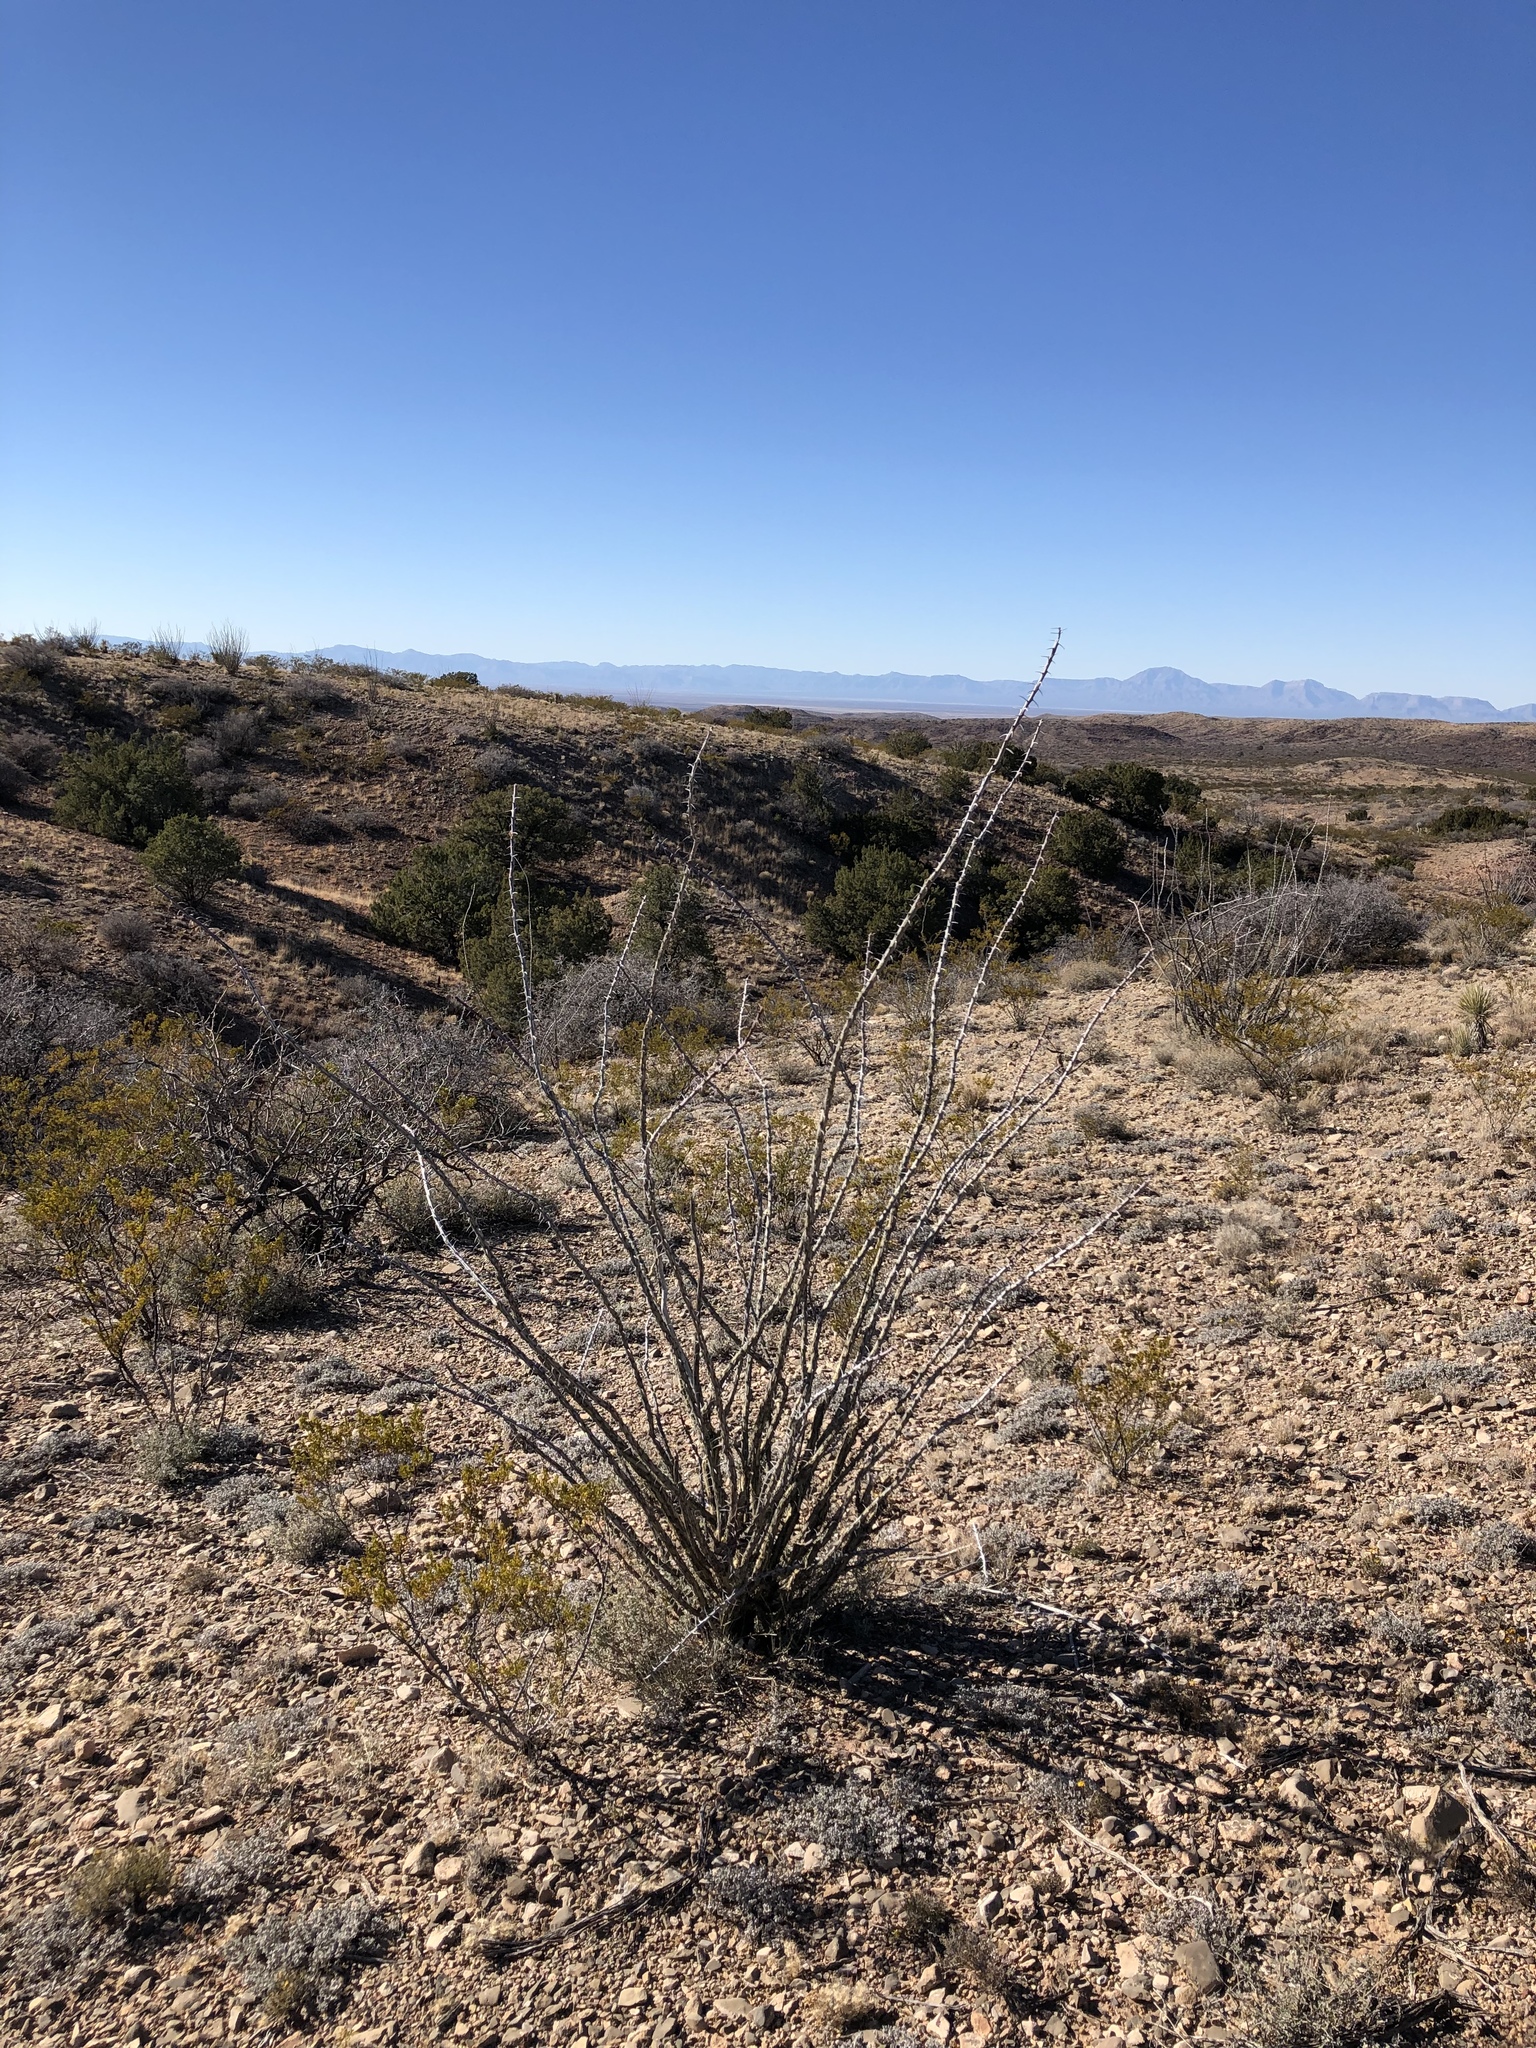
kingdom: Plantae
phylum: Tracheophyta
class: Magnoliopsida
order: Ericales
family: Fouquieriaceae
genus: Fouquieria
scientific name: Fouquieria splendens
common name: Vine-cactus
